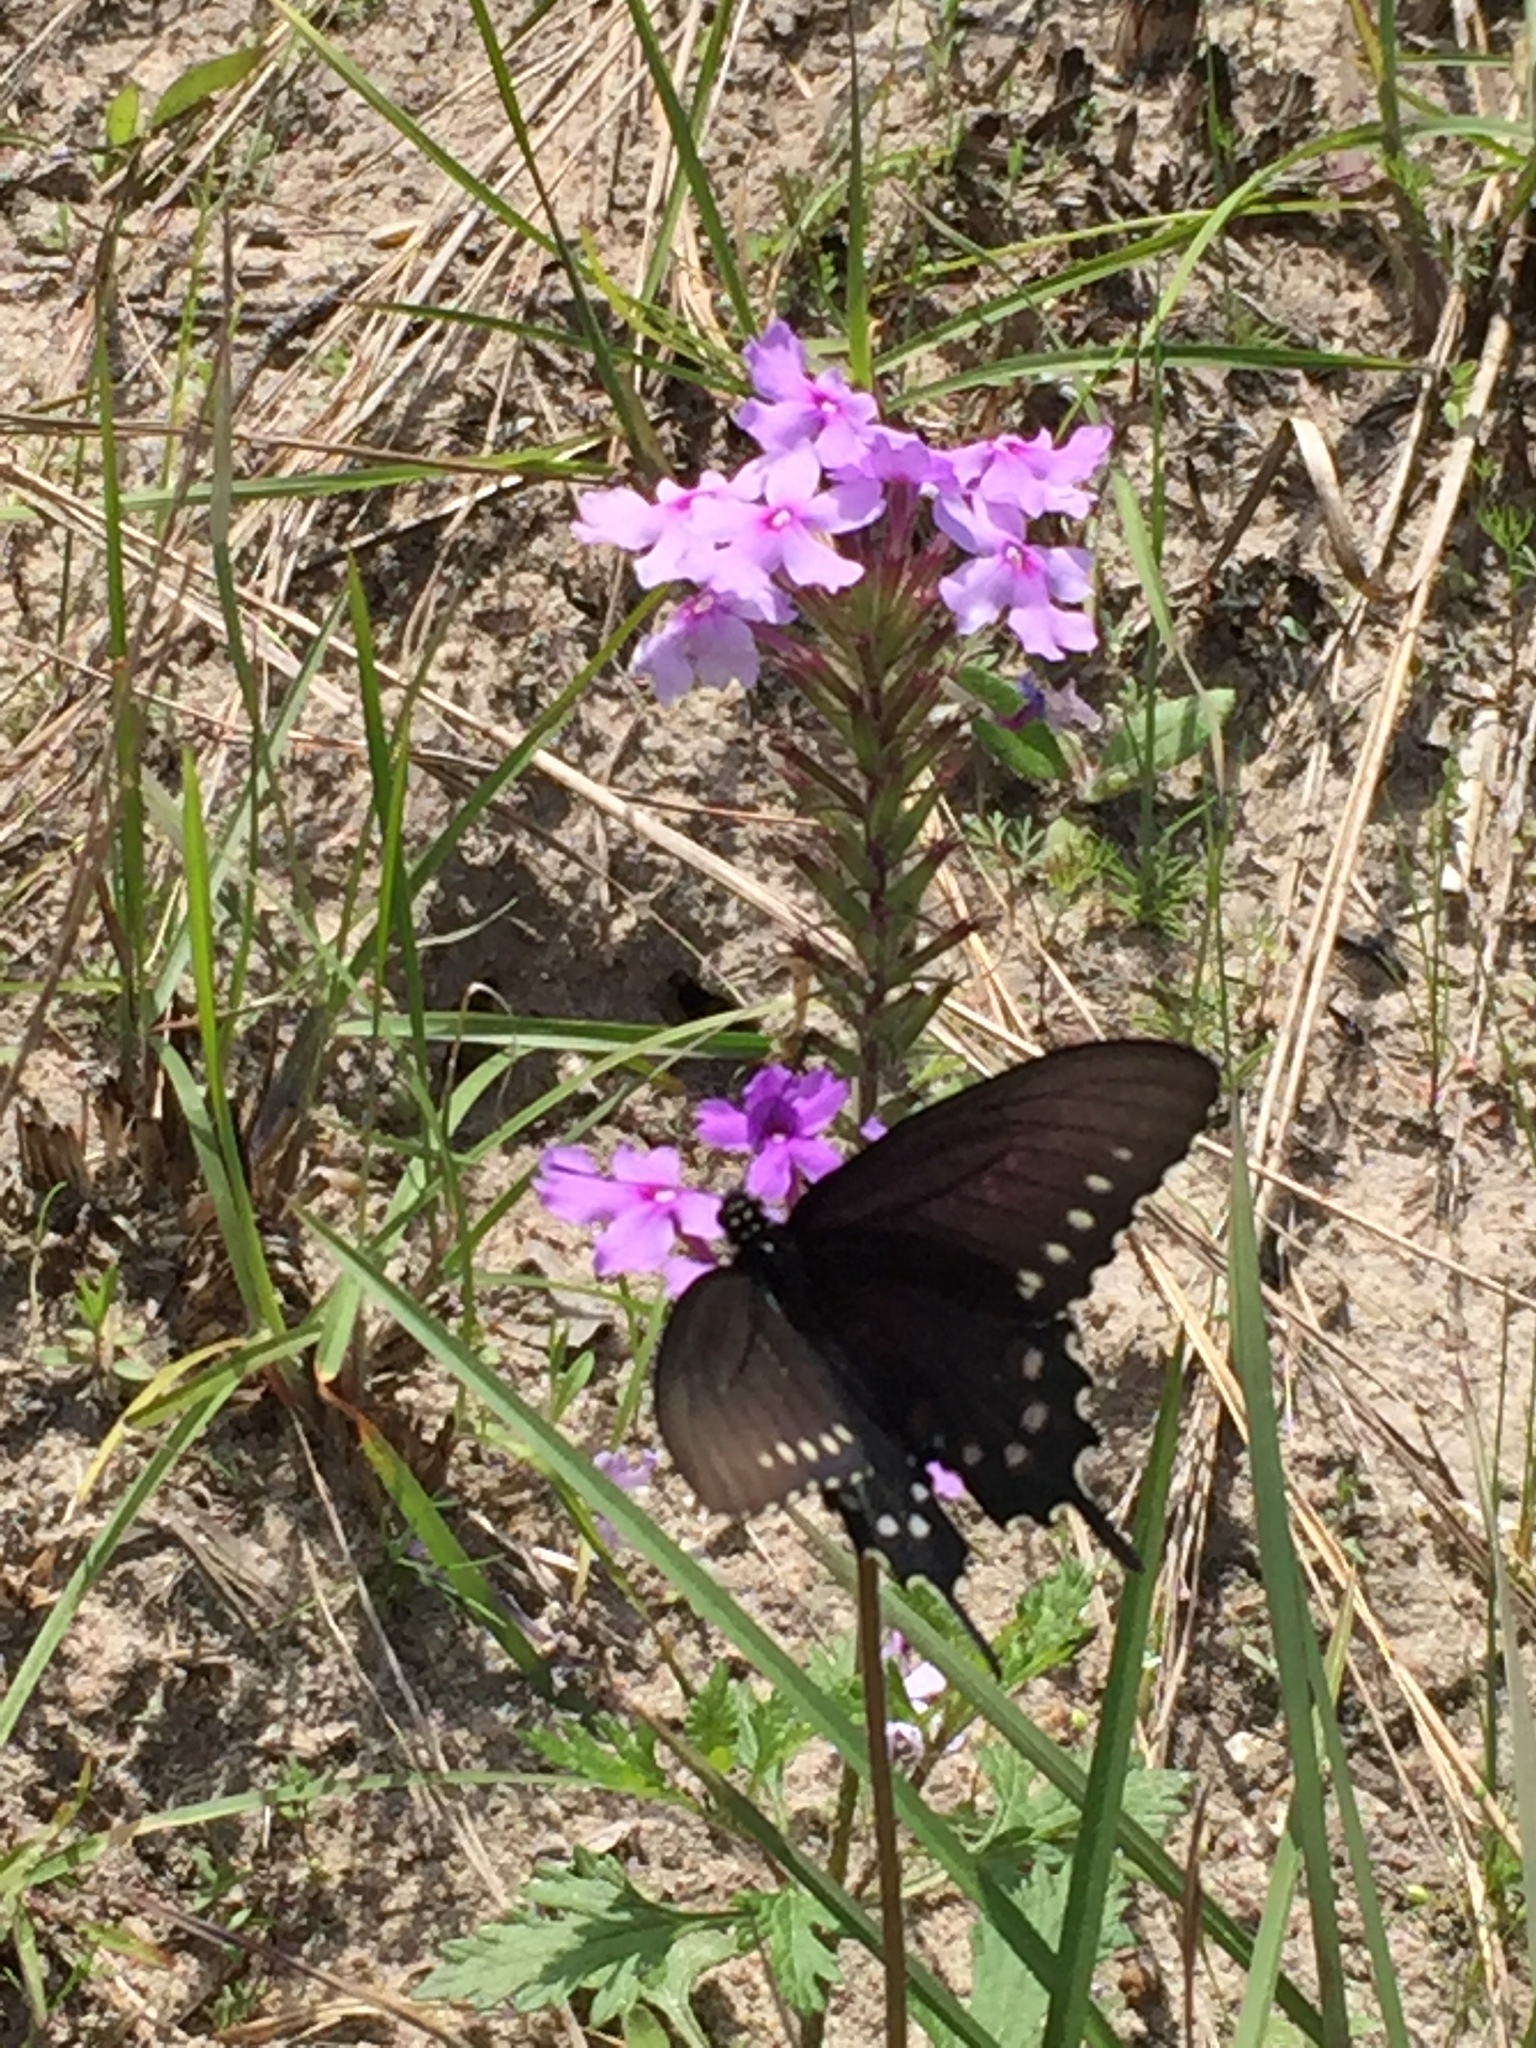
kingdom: Animalia
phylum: Arthropoda
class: Insecta
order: Lepidoptera
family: Papilionidae
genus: Battus
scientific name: Battus philenor
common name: Pipevine swallowtail
